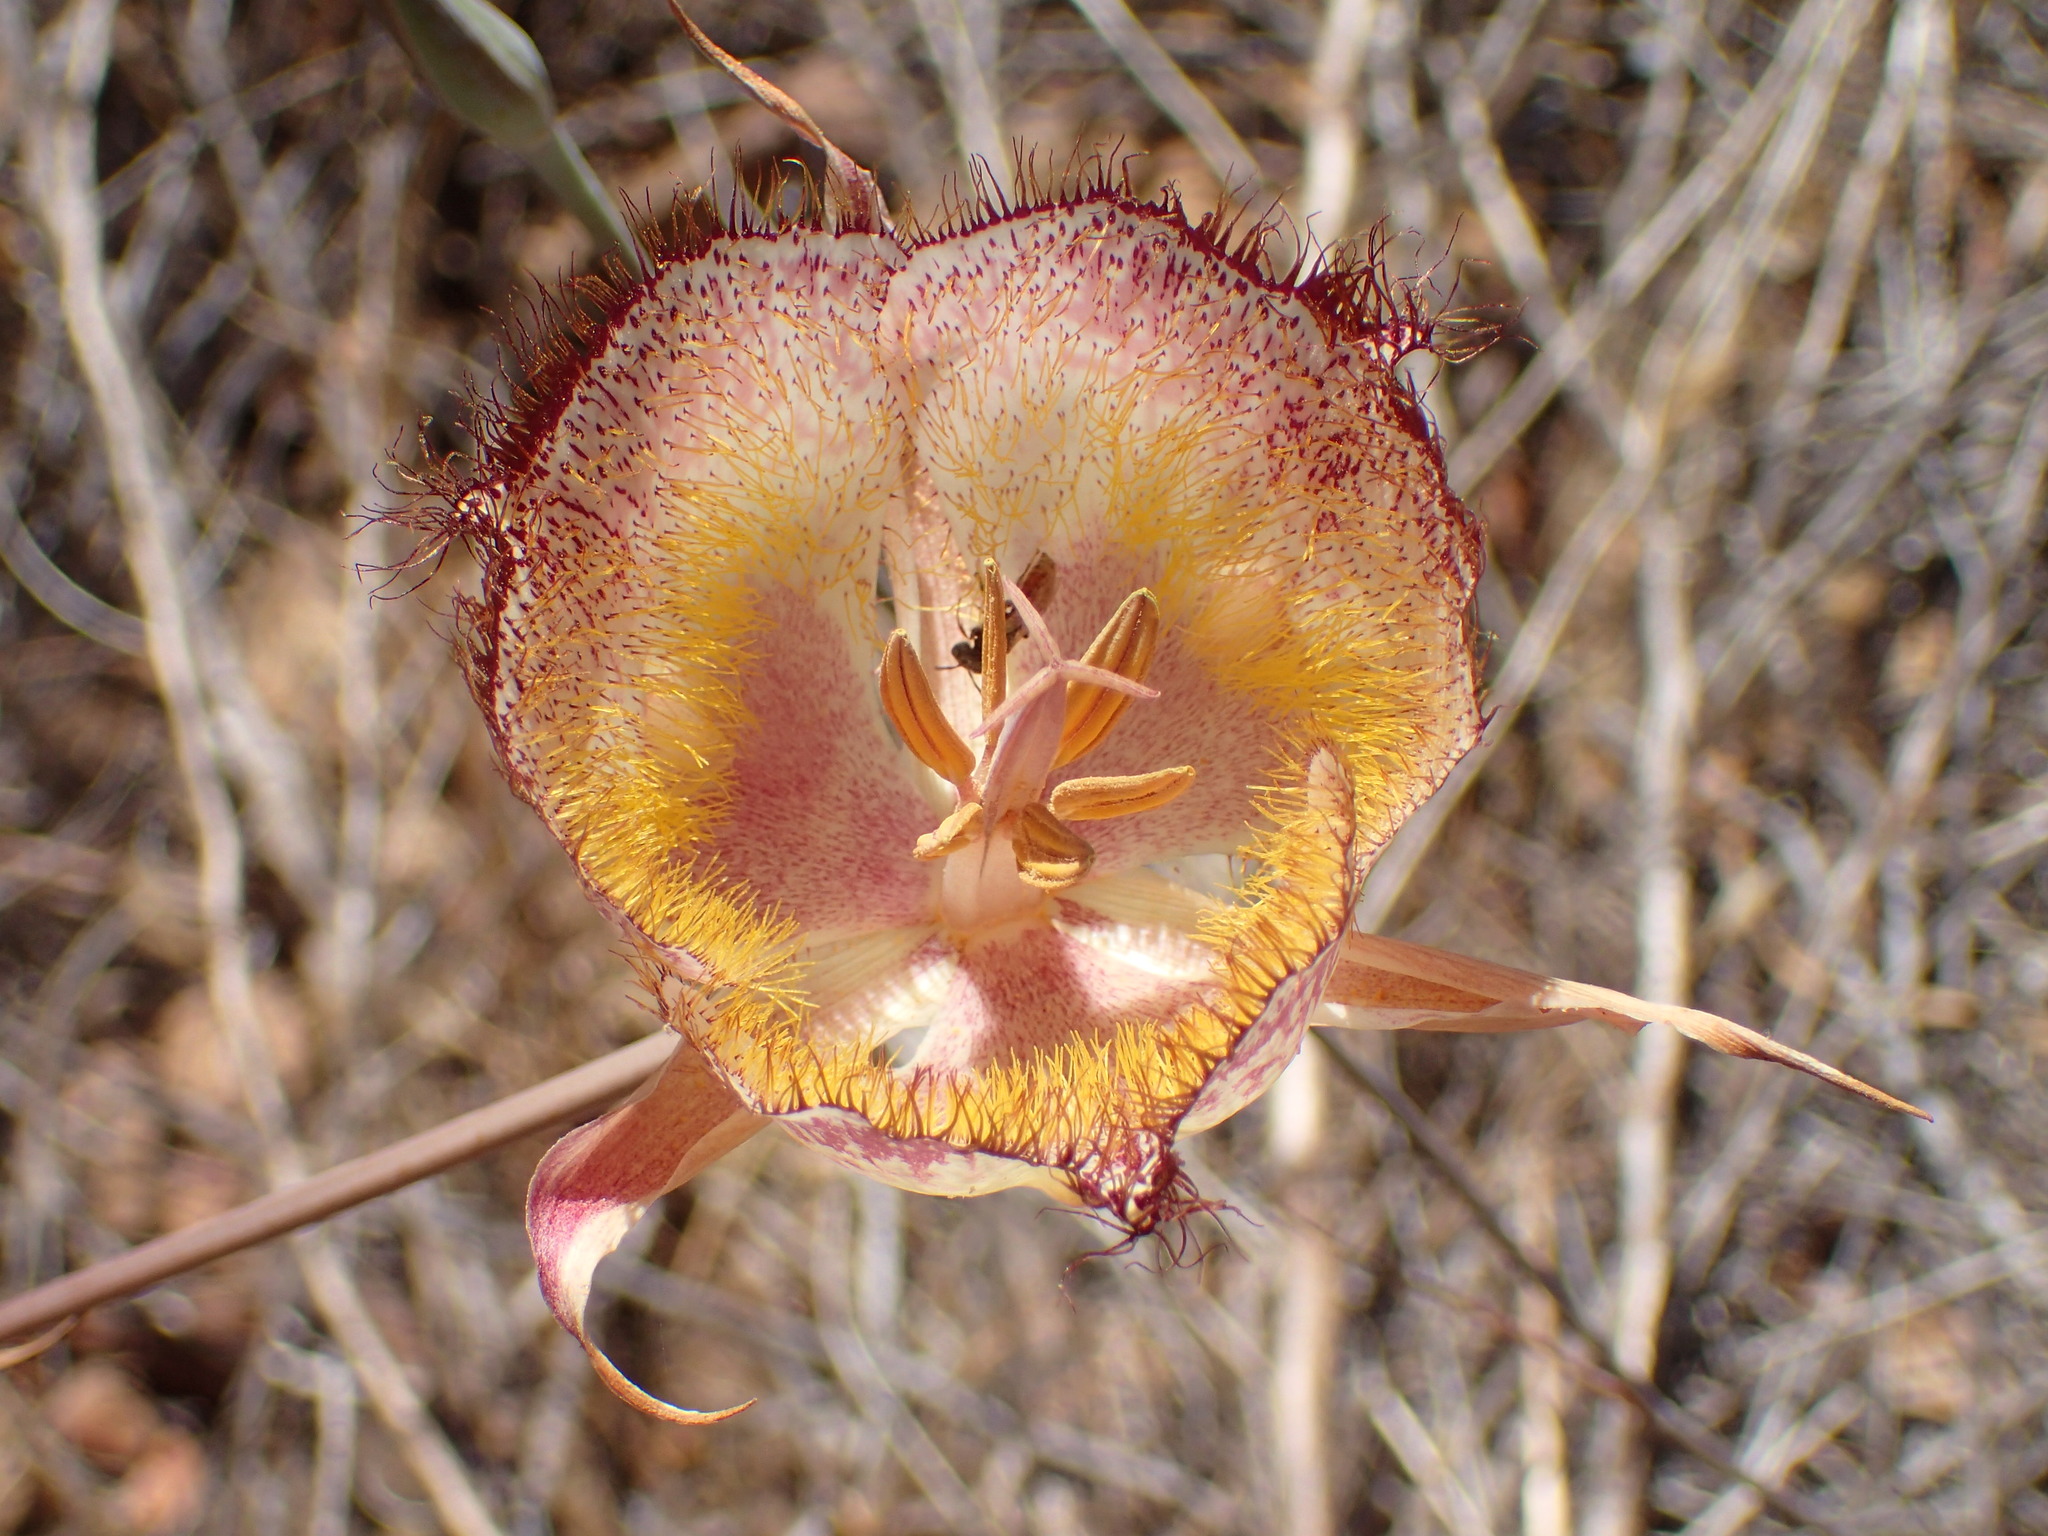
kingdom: Plantae
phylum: Tracheophyta
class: Liliopsida
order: Liliales
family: Liliaceae
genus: Calochortus
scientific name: Calochortus fimbriatus
